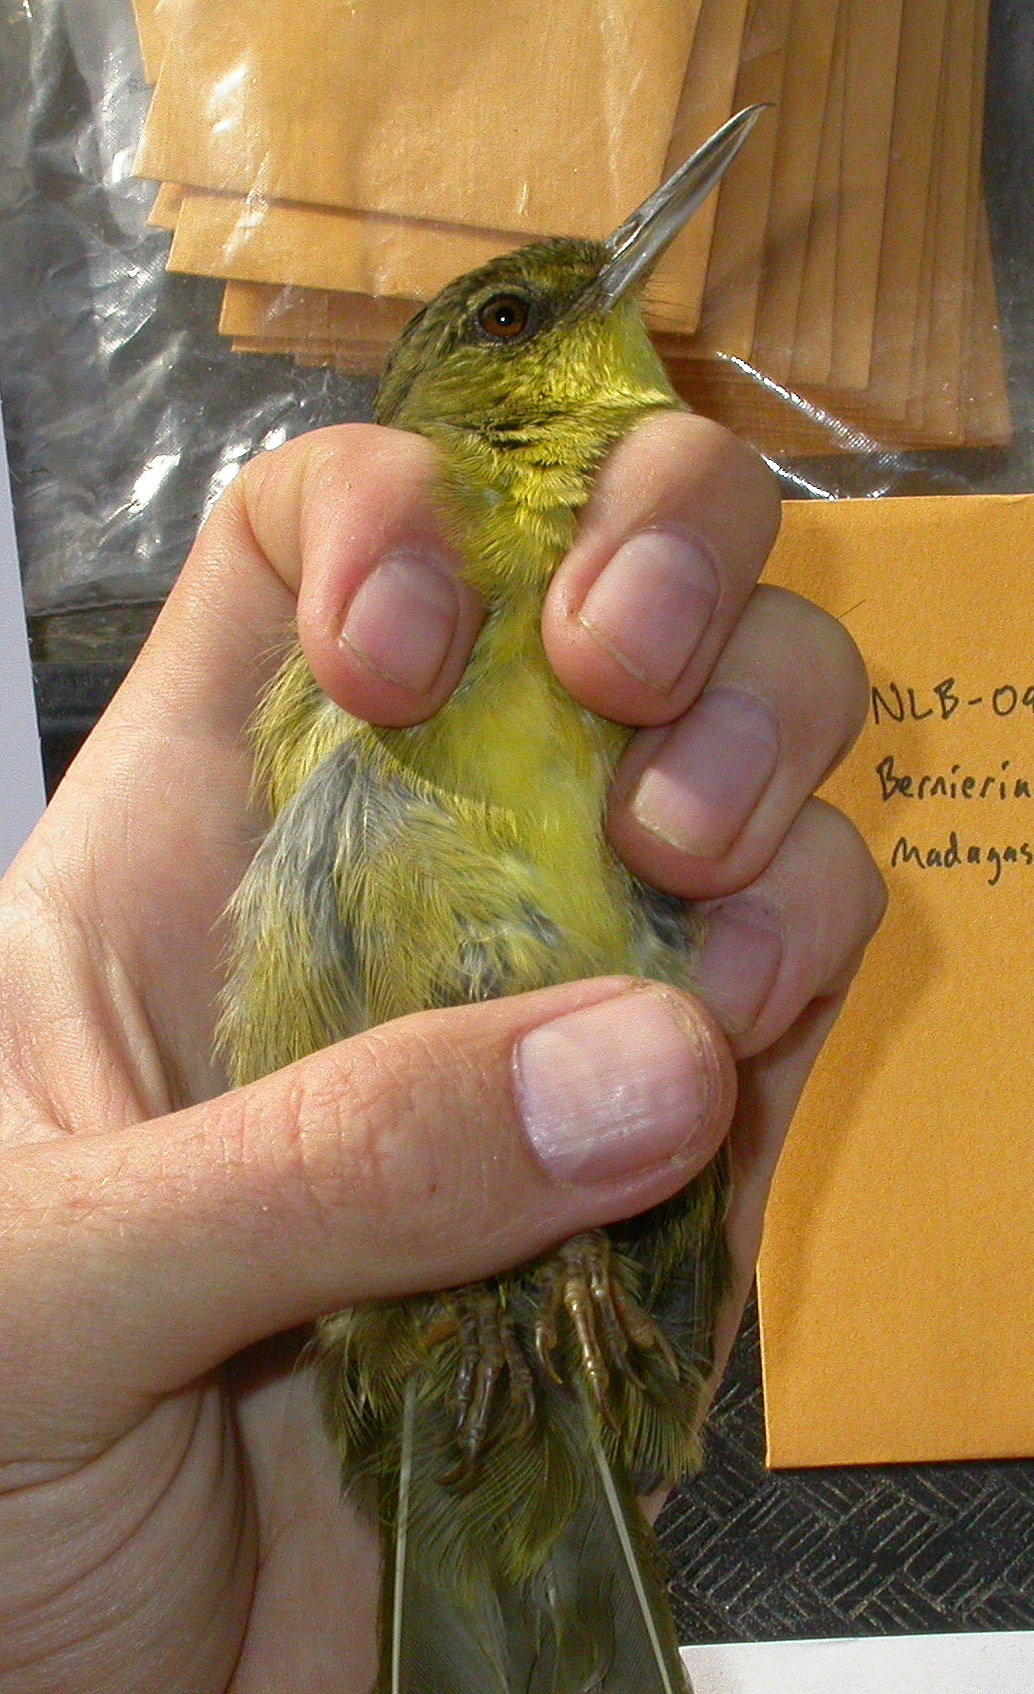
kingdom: Animalia
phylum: Chordata
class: Aves
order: Passeriformes
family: Bernieridae
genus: Bernieria
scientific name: Bernieria madagascariensis
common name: Long-billed bernieria
